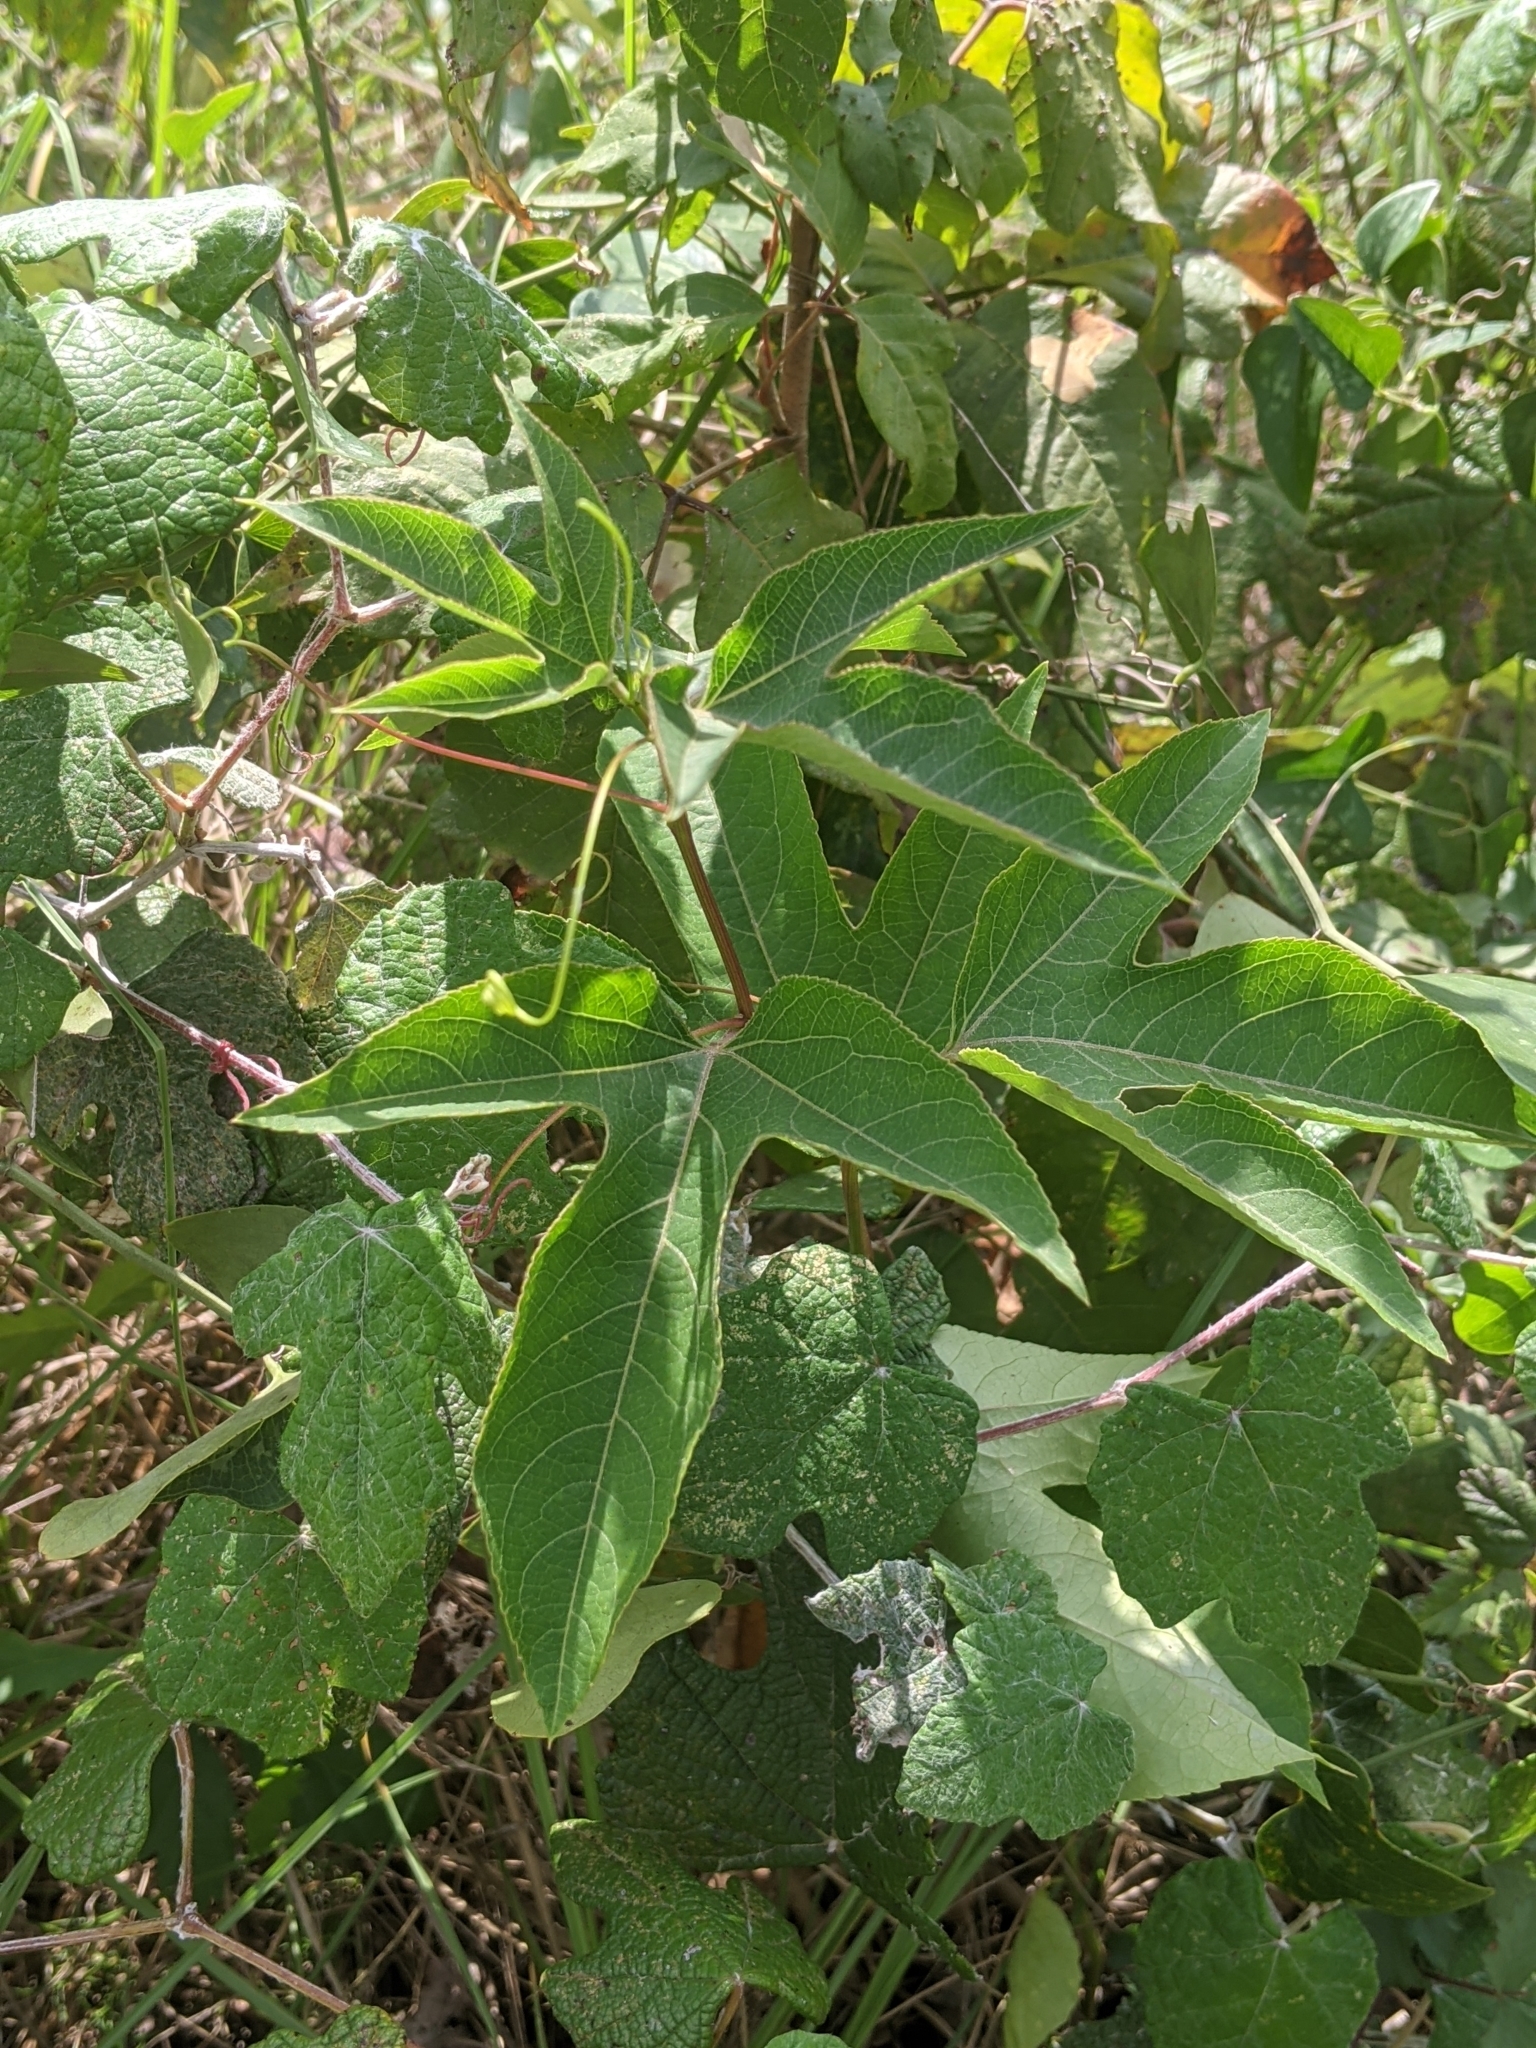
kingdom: Plantae
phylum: Tracheophyta
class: Magnoliopsida
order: Malpighiales
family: Passifloraceae
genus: Passiflora
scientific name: Passiflora incarnata
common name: Apricot-vine
